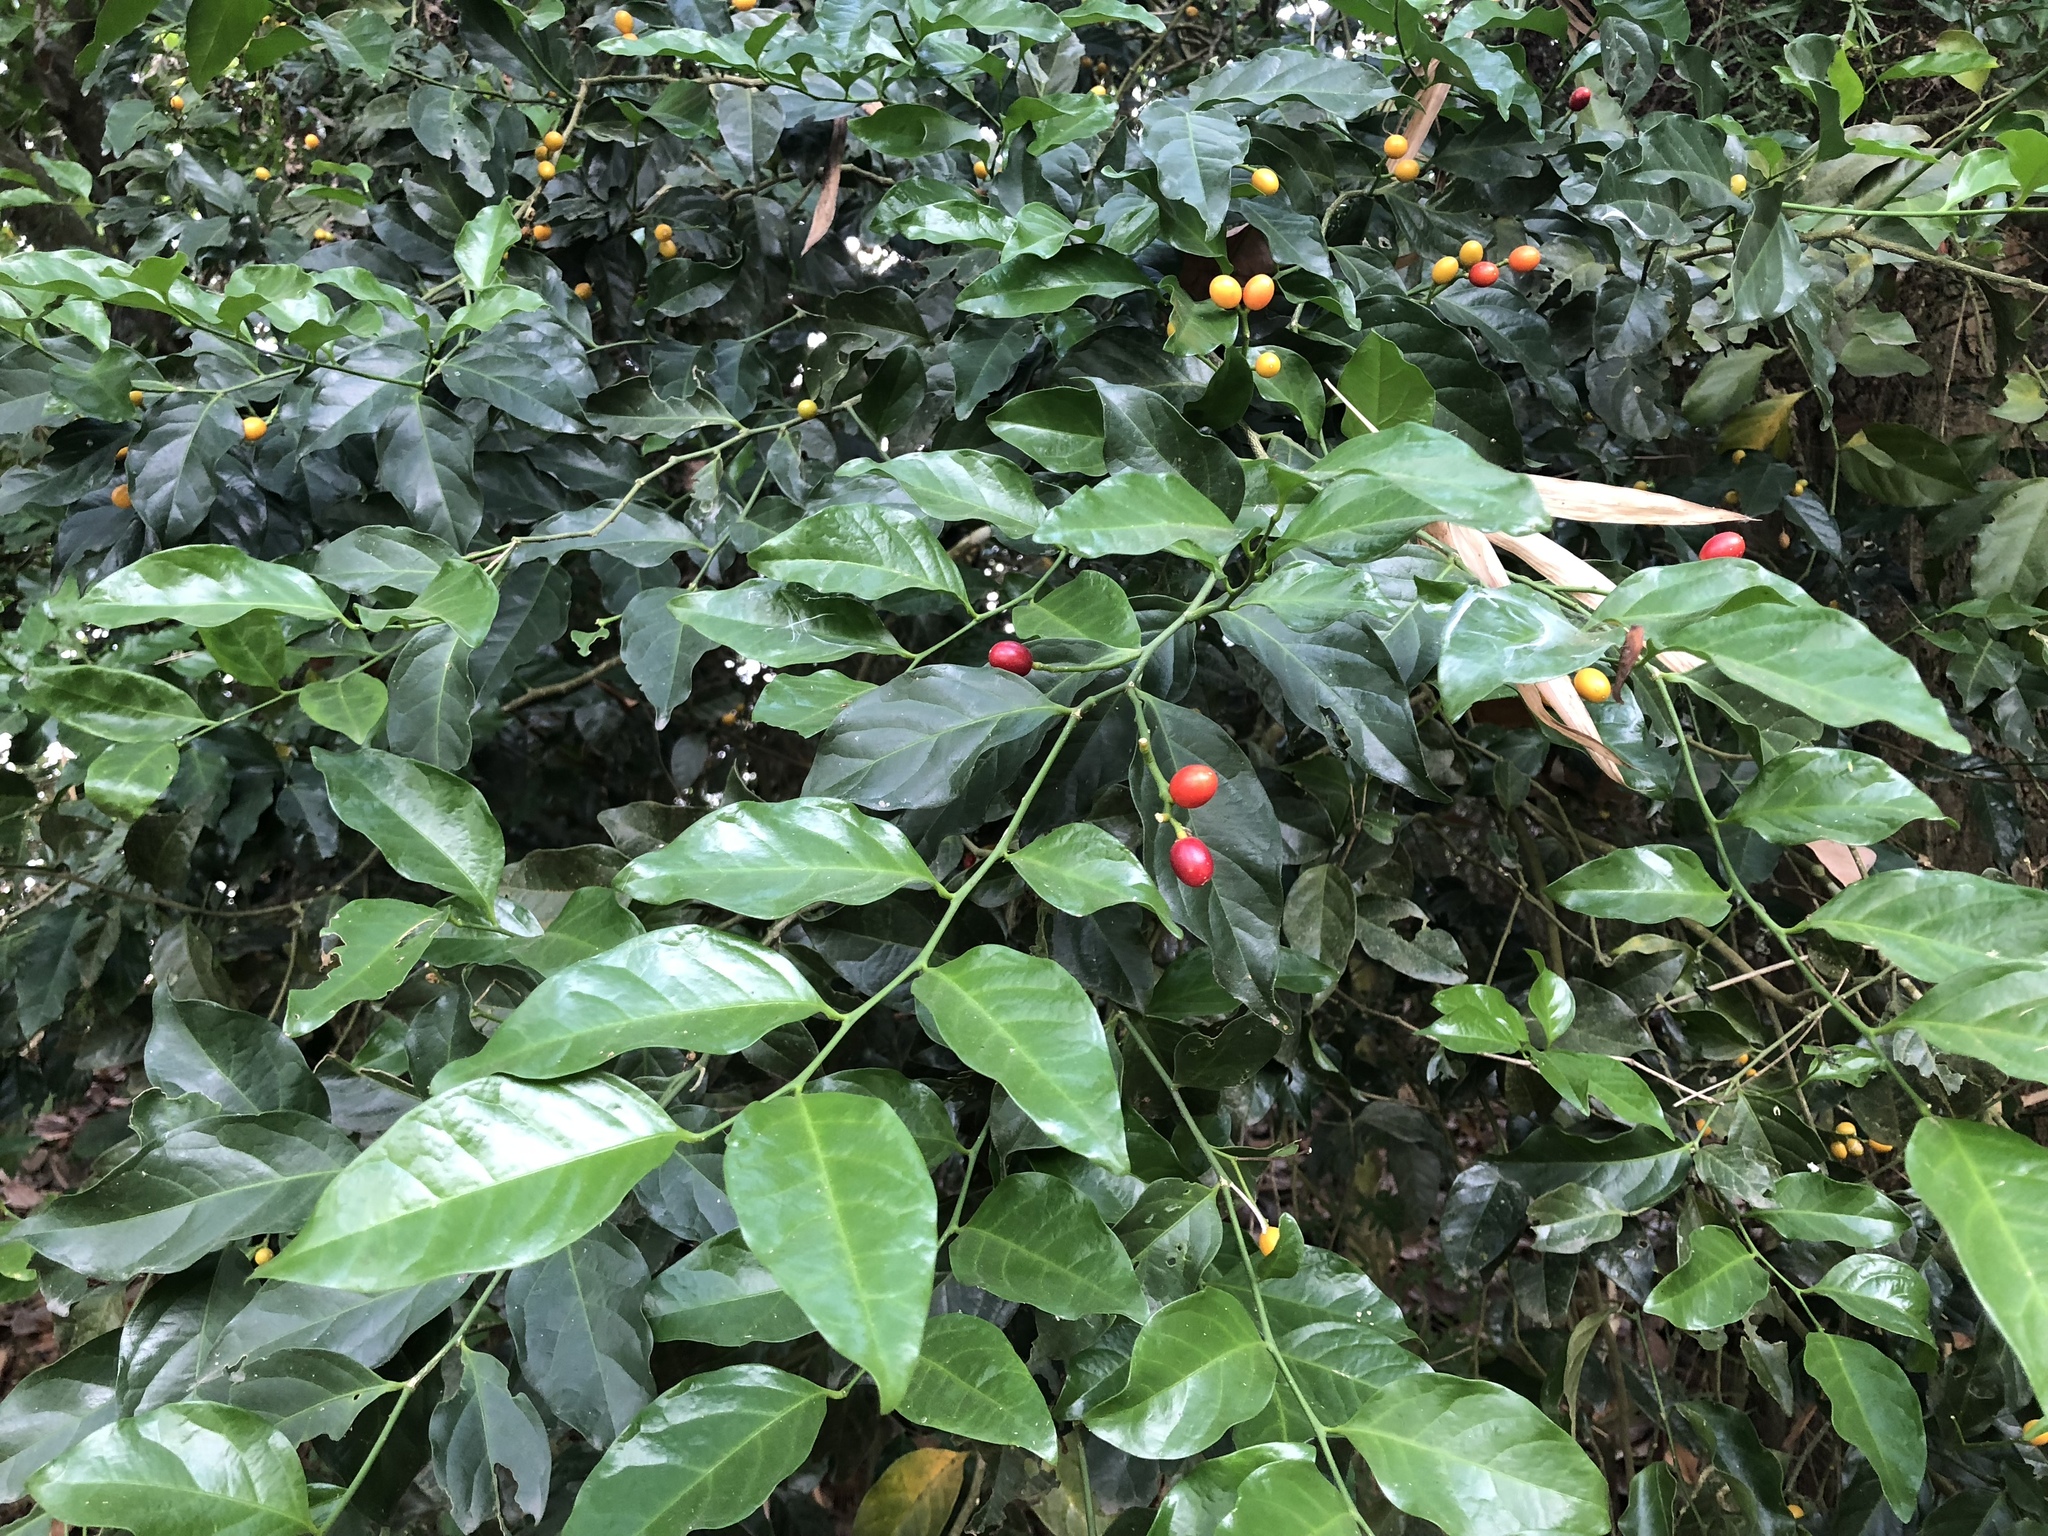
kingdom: Plantae
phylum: Tracheophyta
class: Magnoliopsida
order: Santalales
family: Opiliaceae
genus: Champereia
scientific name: Champereia manillana
